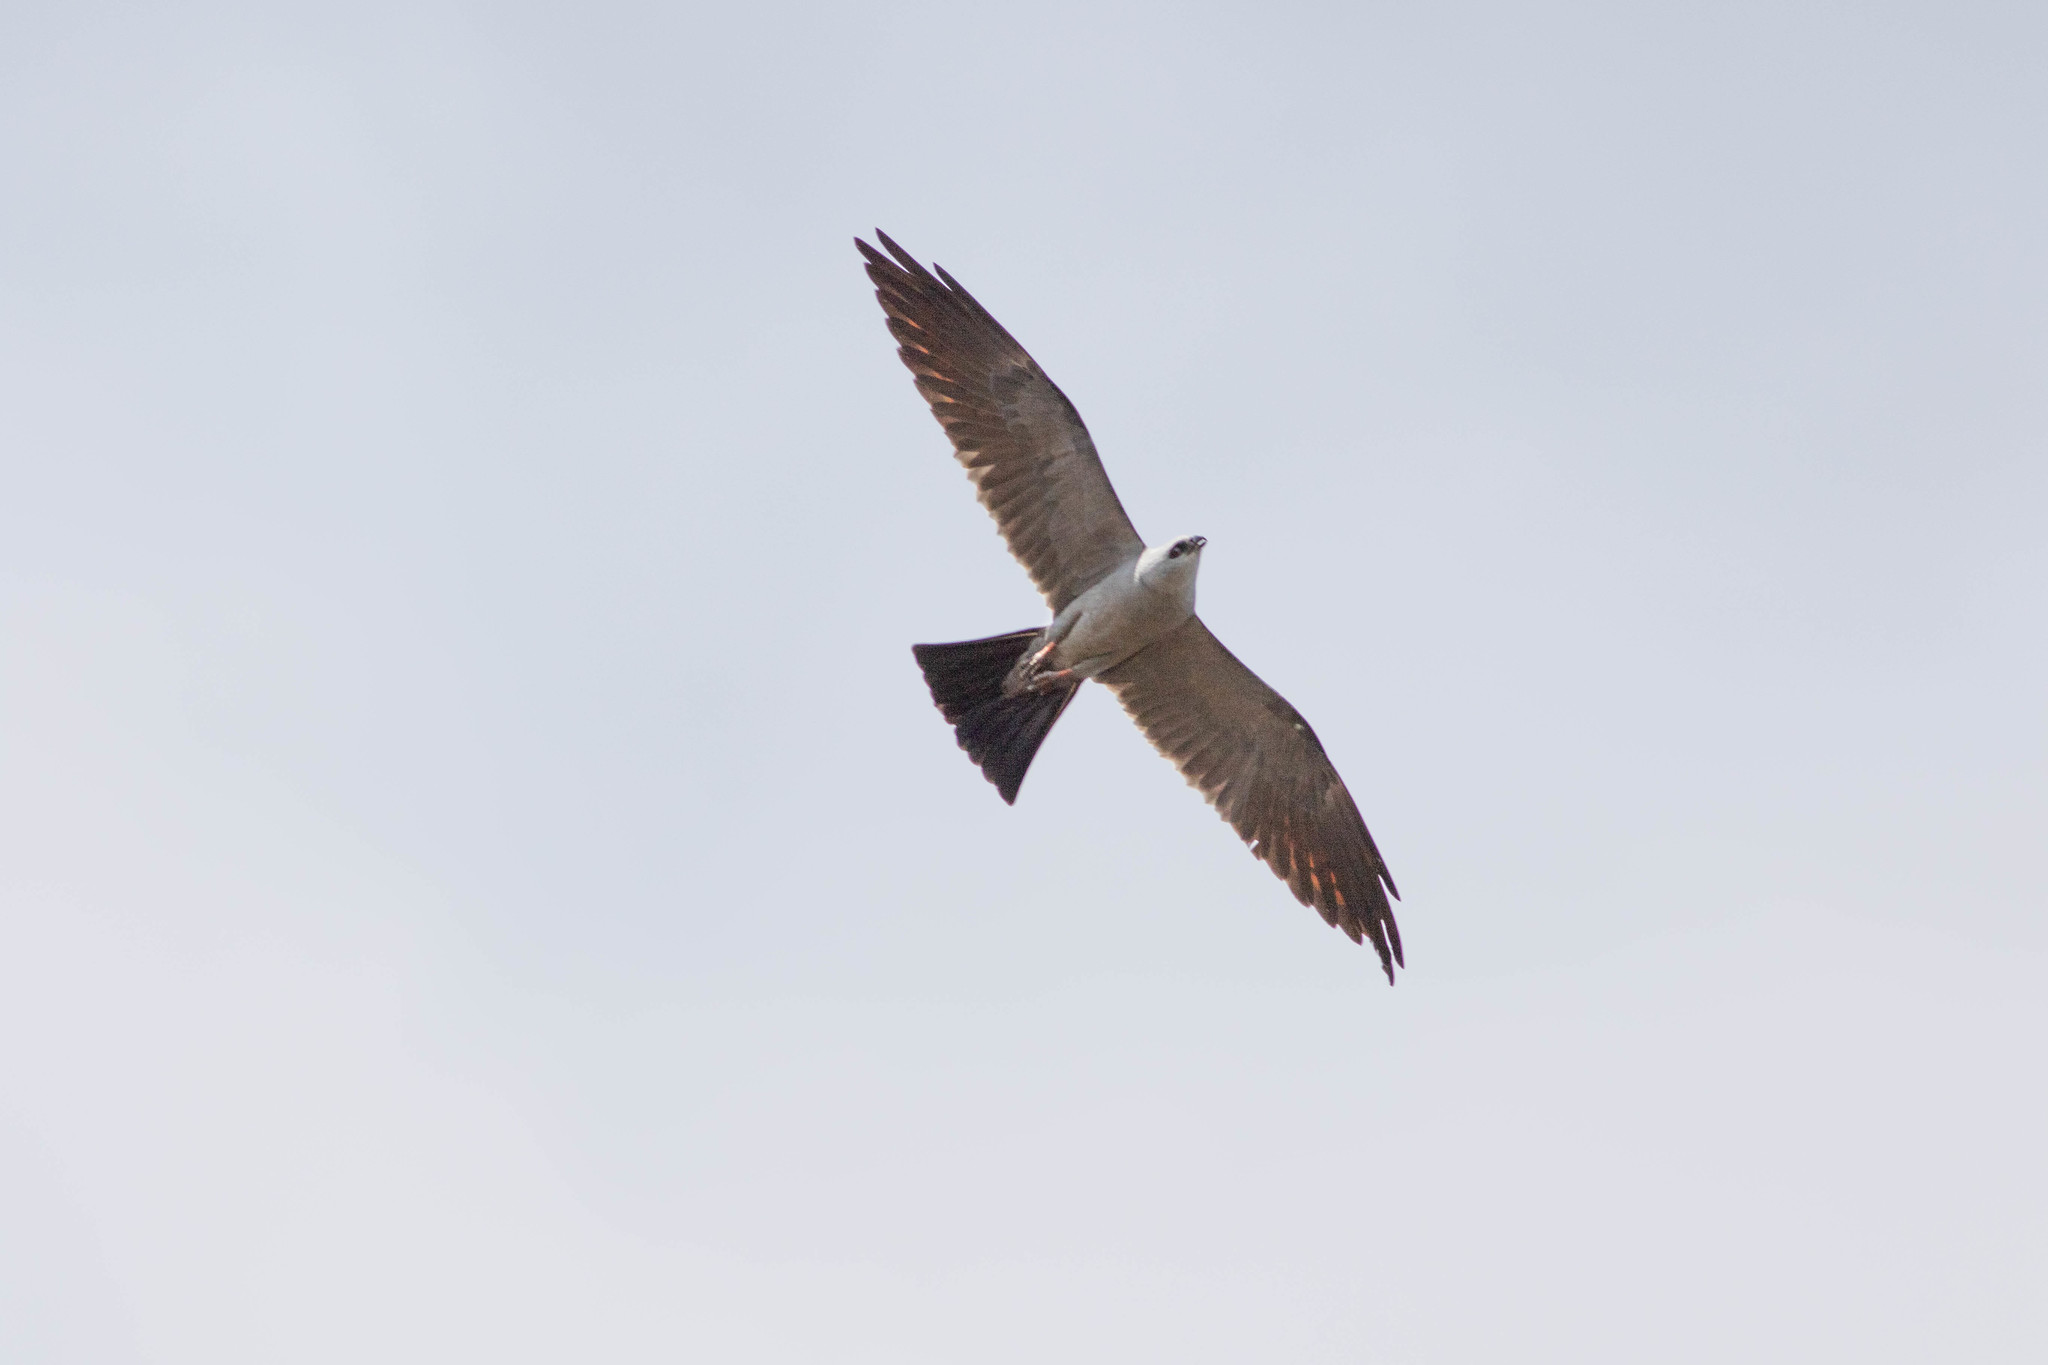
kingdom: Animalia
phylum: Chordata
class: Aves
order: Accipitriformes
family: Accipitridae
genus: Ictinia
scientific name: Ictinia mississippiensis
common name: Mississippi kite
